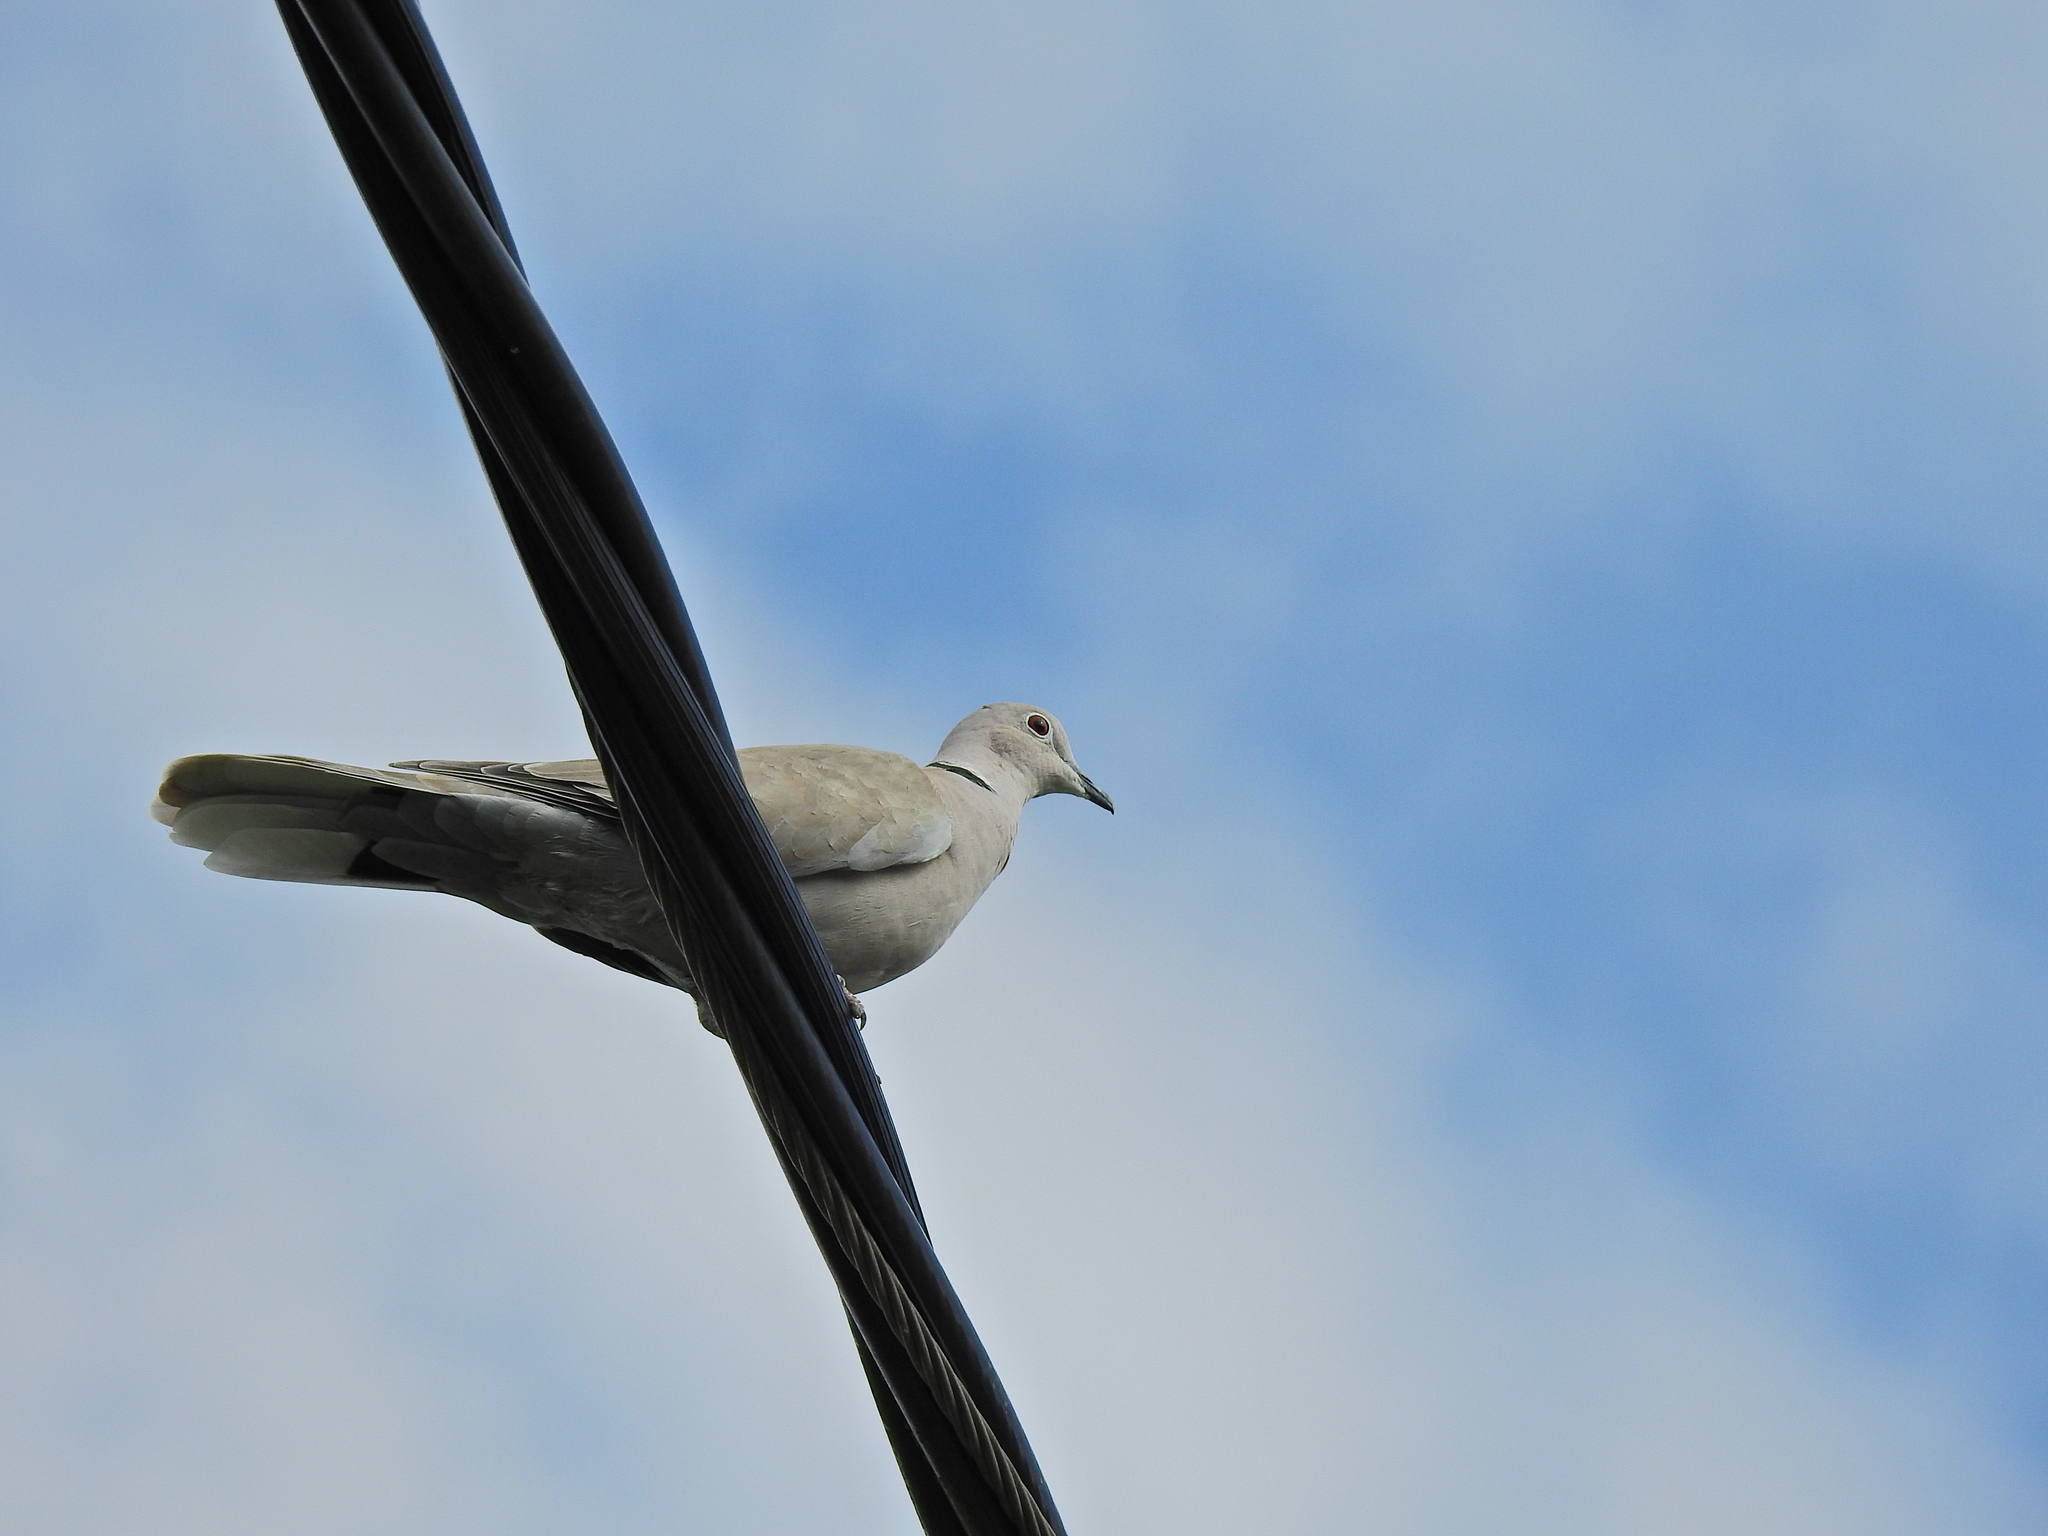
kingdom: Animalia
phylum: Chordata
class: Aves
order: Columbiformes
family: Columbidae
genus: Streptopelia
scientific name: Streptopelia decaocto
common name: Eurasian collared dove
